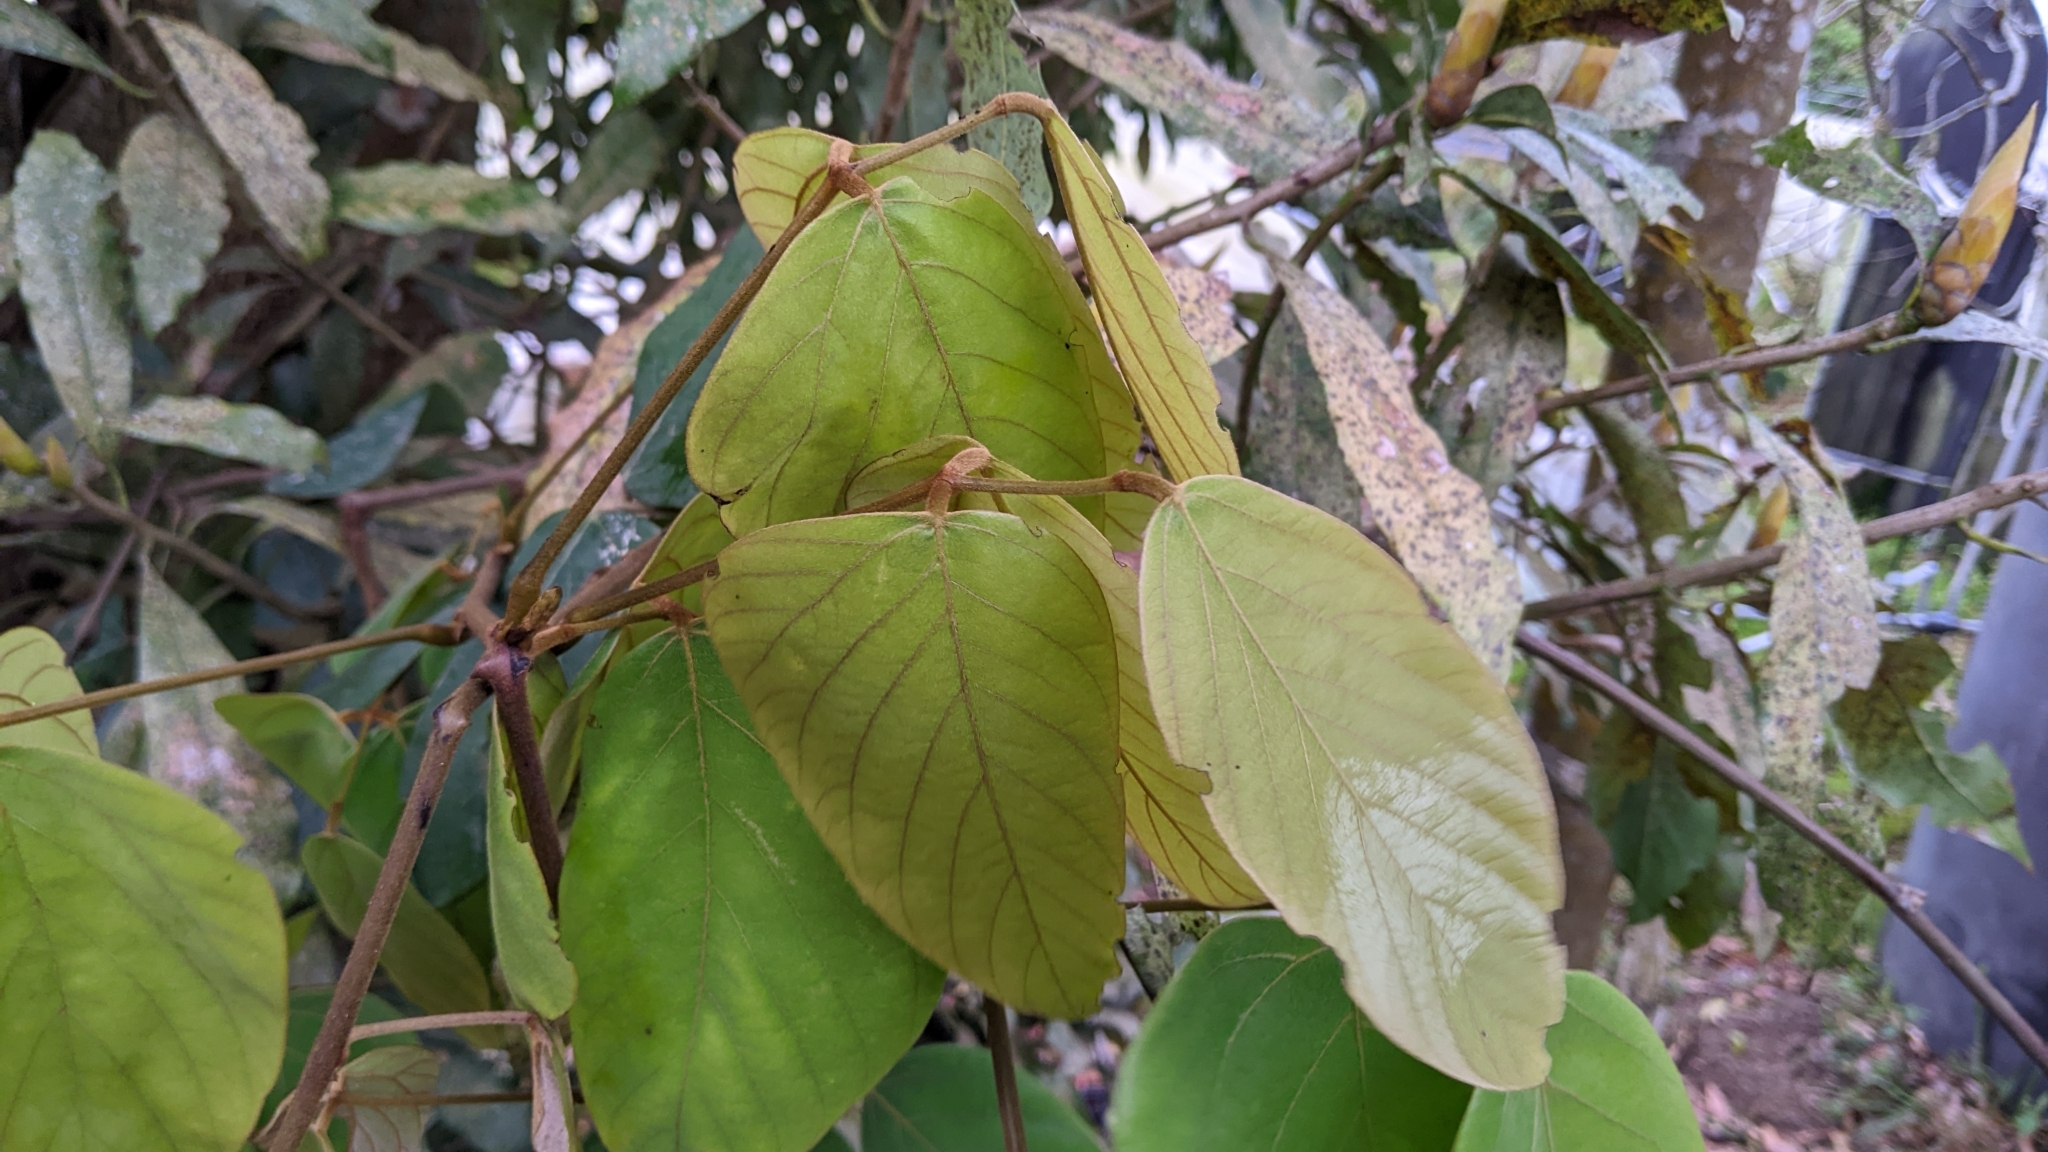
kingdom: Plantae
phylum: Tracheophyta
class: Magnoliopsida
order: Fabales
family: Fabaceae
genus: Mucuna
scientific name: Mucuna macrocarpa
